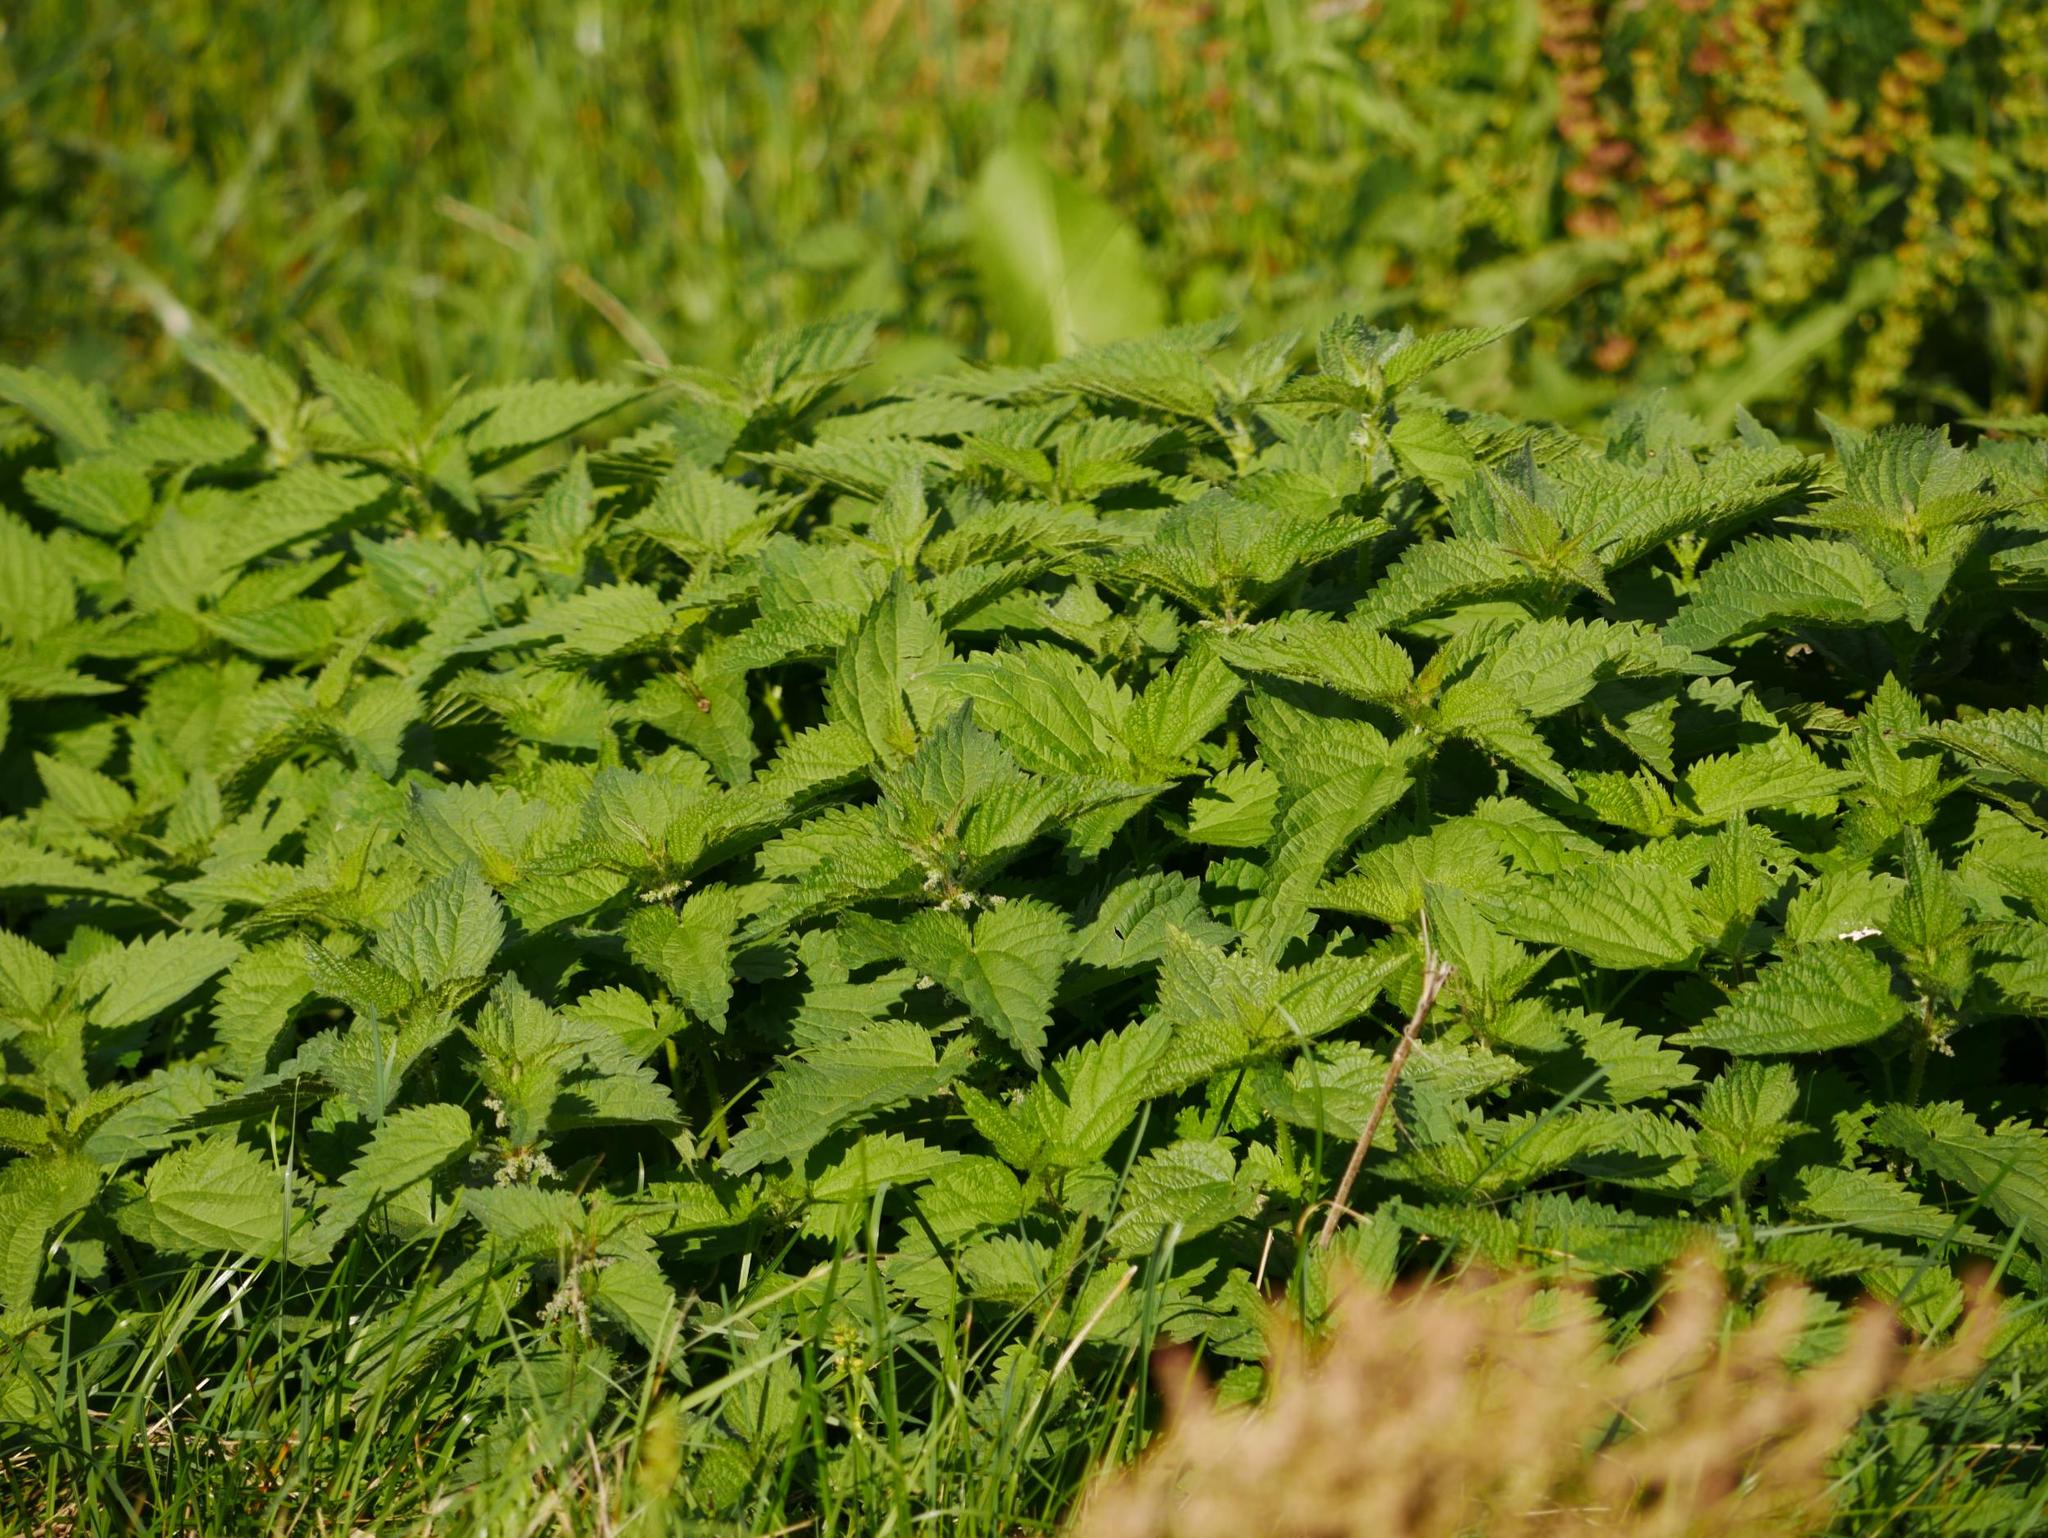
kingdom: Plantae
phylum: Tracheophyta
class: Magnoliopsida
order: Rosales
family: Urticaceae
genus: Urtica
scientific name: Urtica dioica
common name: Common nettle
